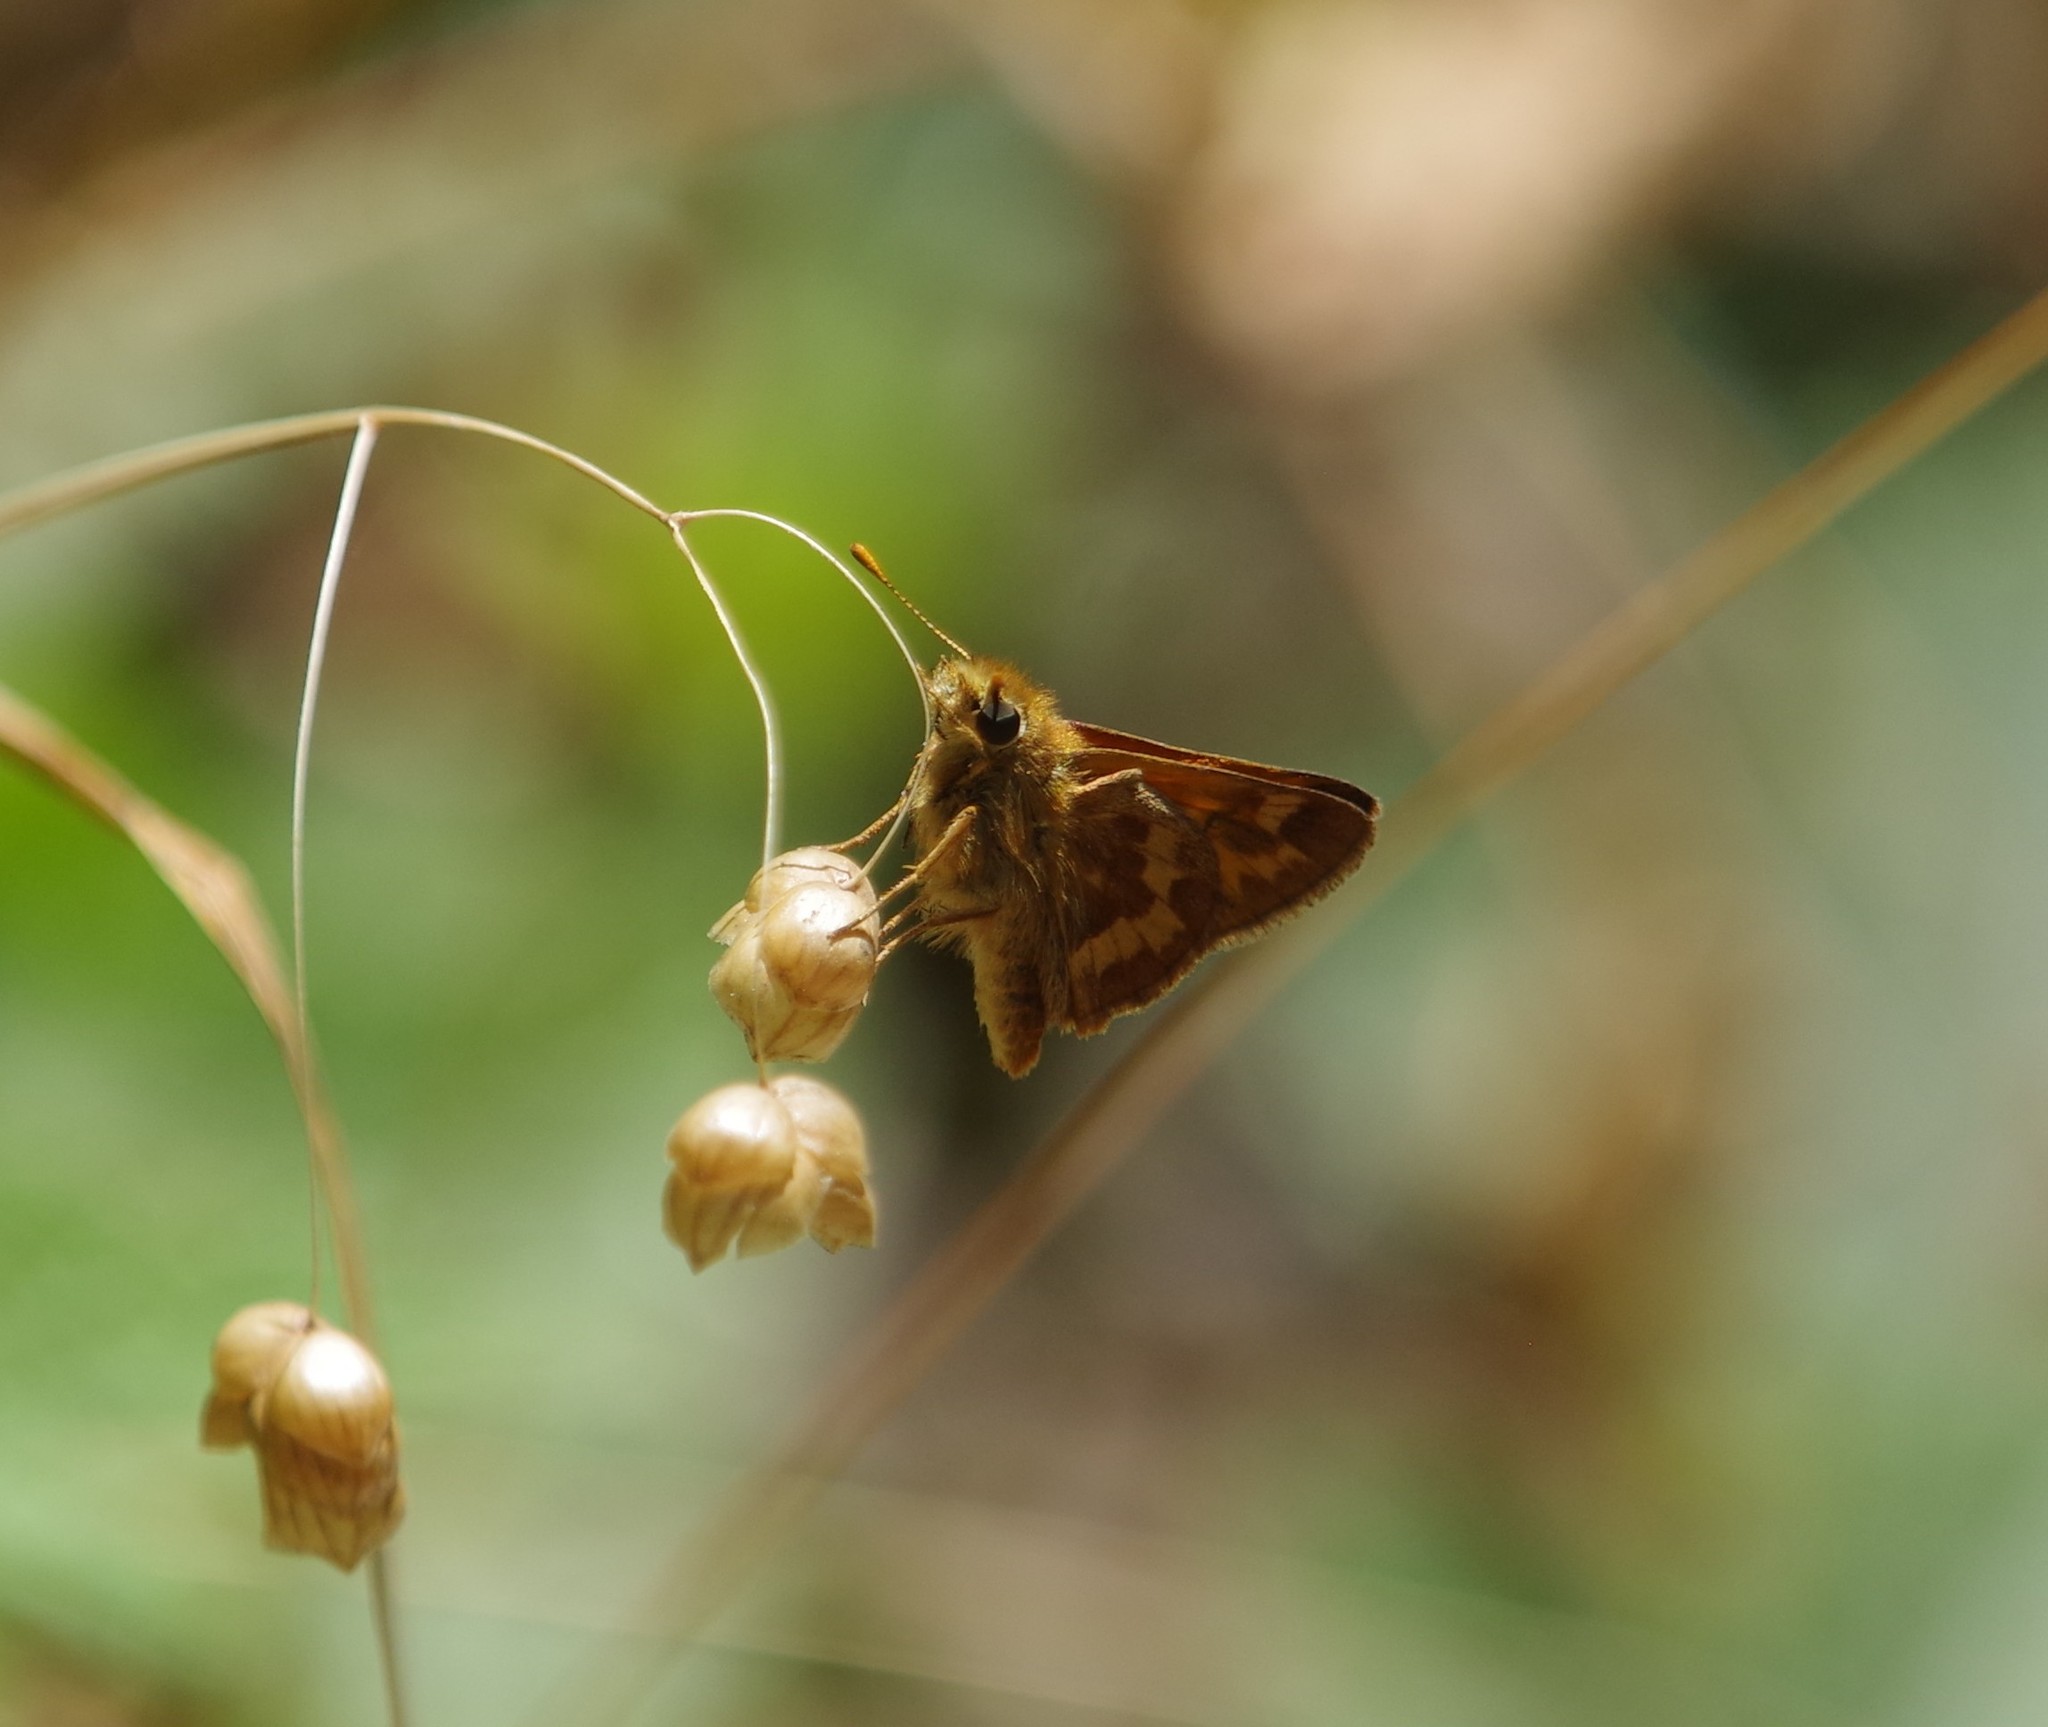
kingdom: Animalia
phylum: Arthropoda
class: Insecta
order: Lepidoptera
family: Hesperiidae
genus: Ochlodes
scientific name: Ochlodes sylvanoides
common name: Woodland skipper
